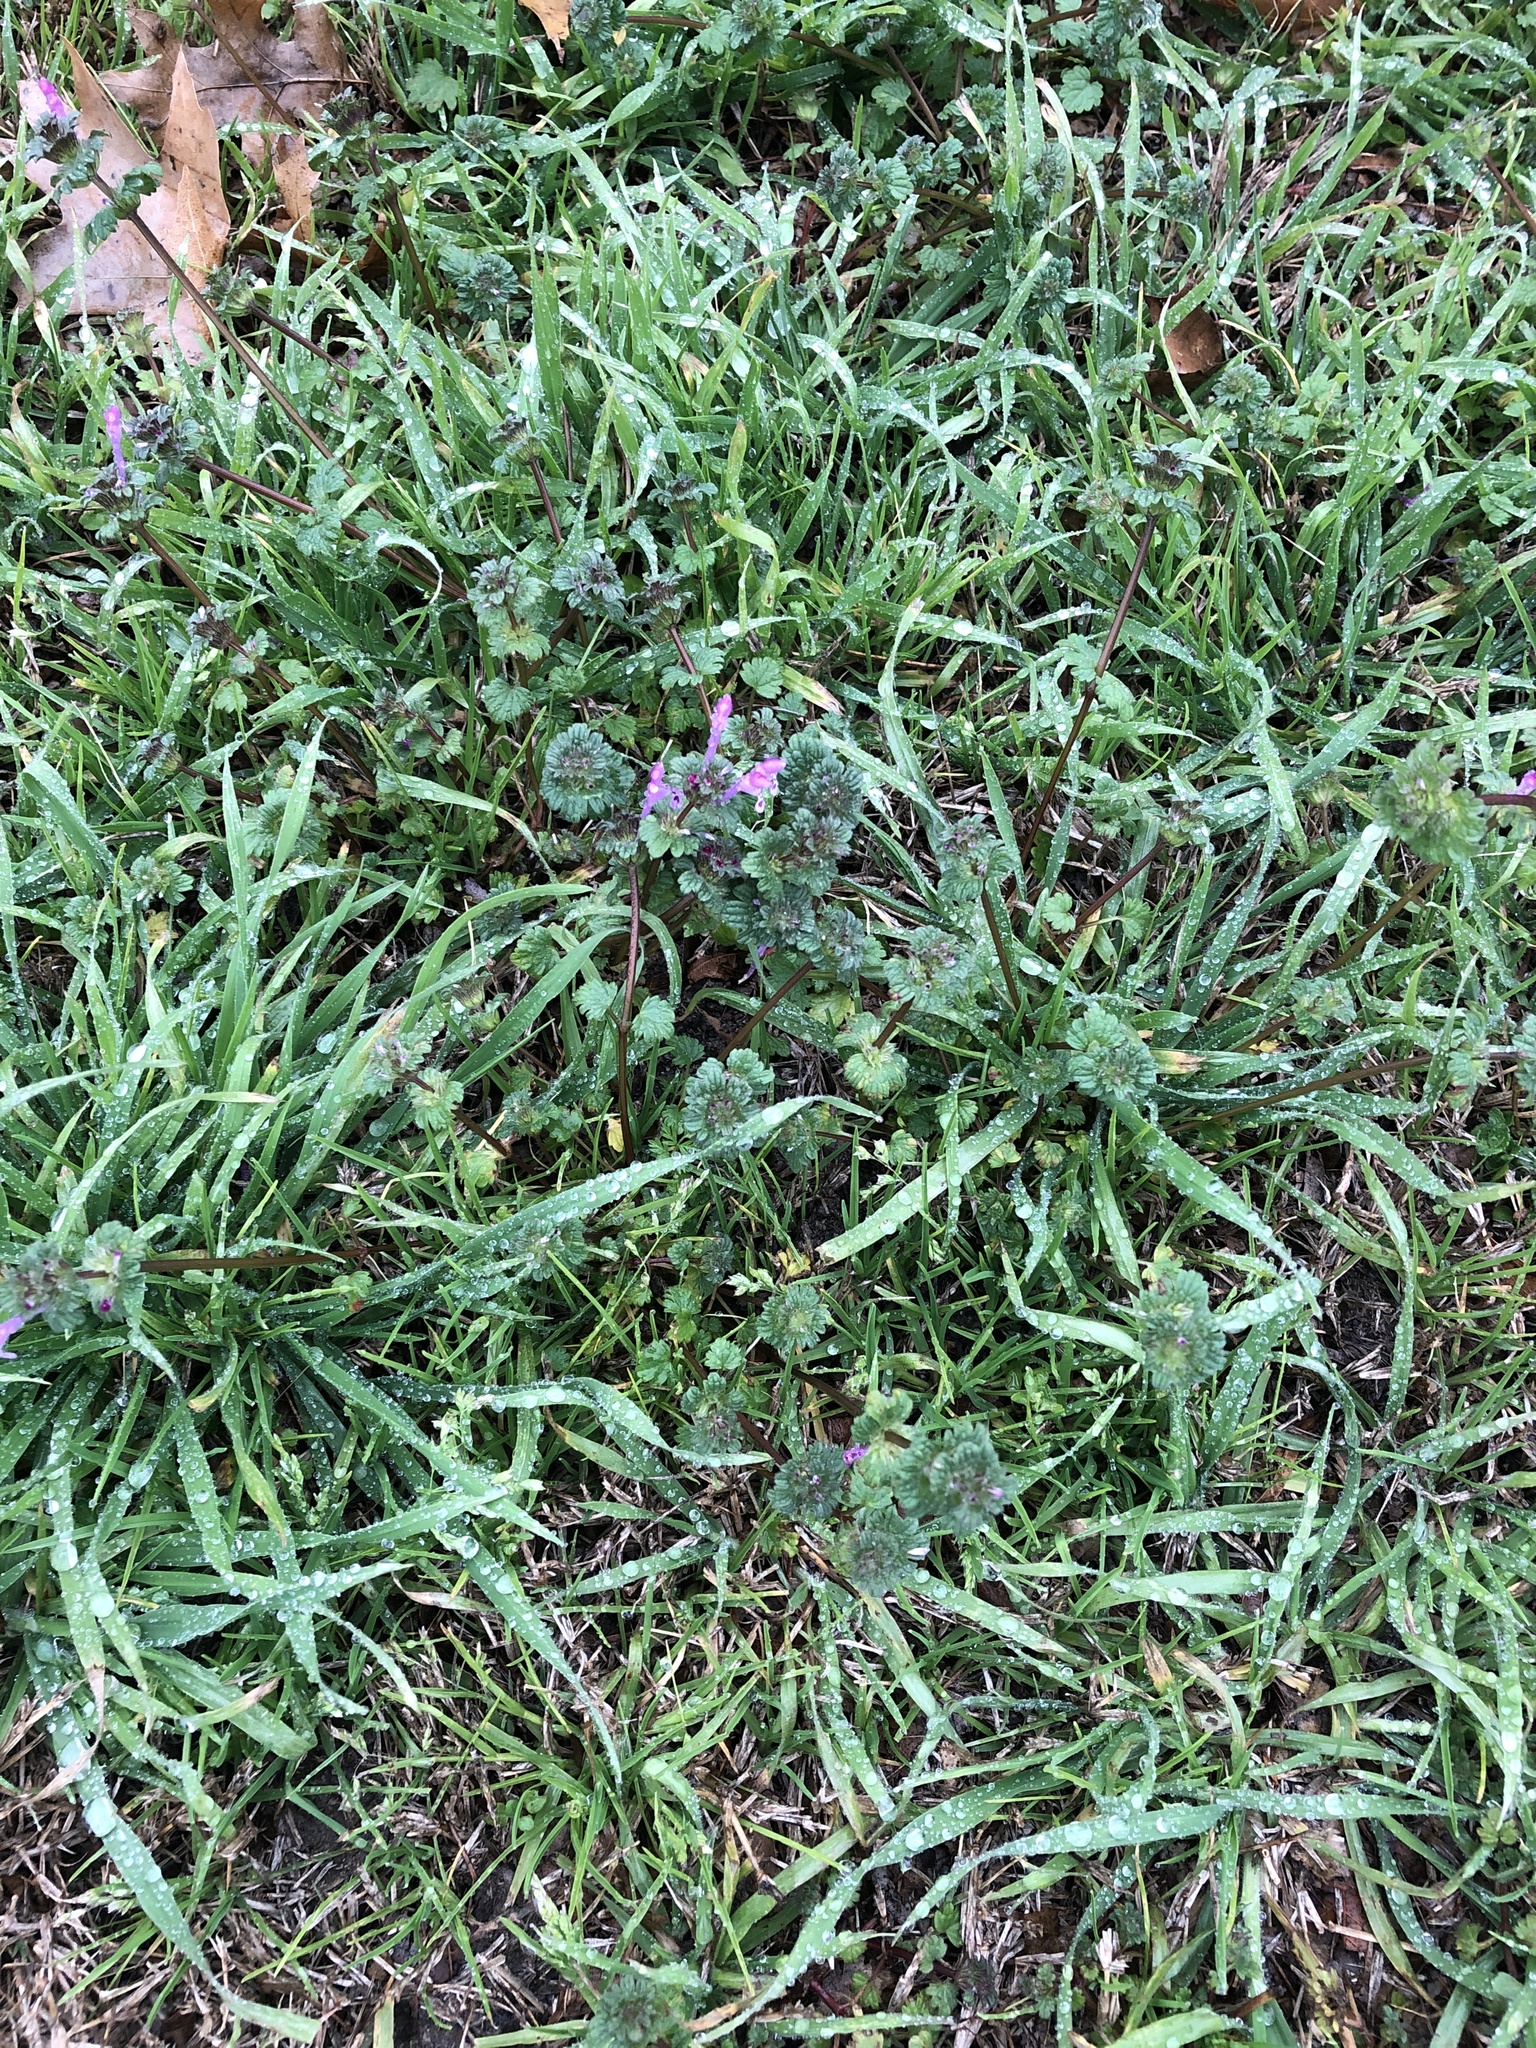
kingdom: Plantae
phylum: Tracheophyta
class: Magnoliopsida
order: Lamiales
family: Lamiaceae
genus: Lamium
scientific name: Lamium amplexicaule
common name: Henbit dead-nettle
